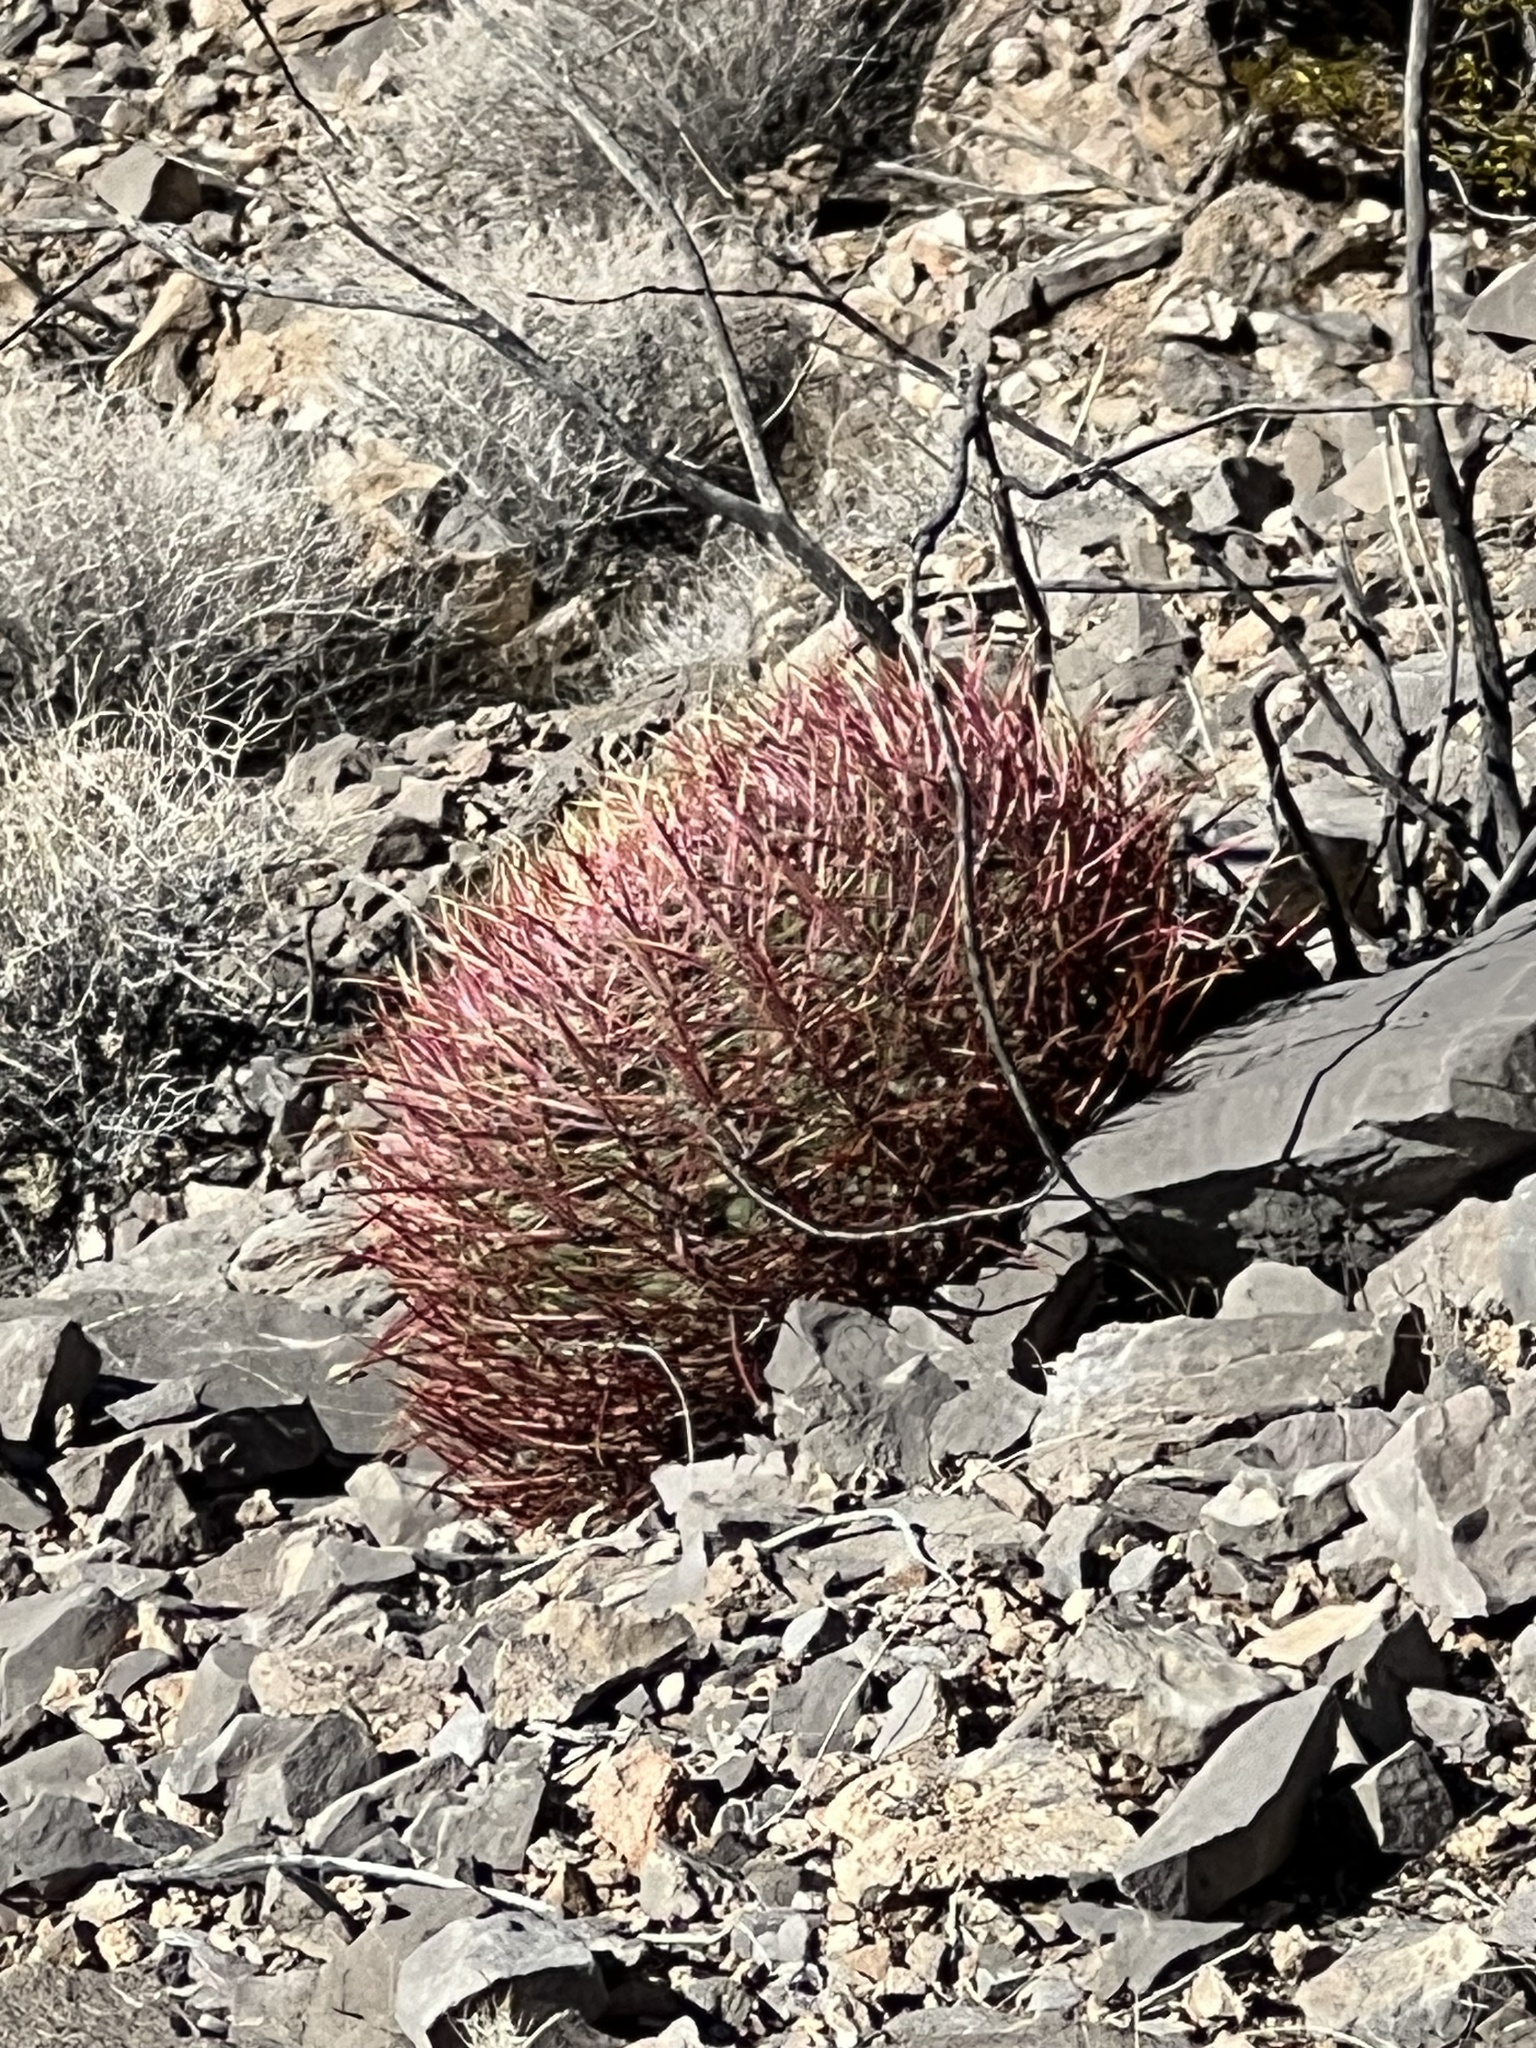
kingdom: Plantae
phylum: Tracheophyta
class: Magnoliopsida
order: Caryophyllales
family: Cactaceae
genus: Ferocactus
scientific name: Ferocactus cylindraceus
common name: California barrel cactus
